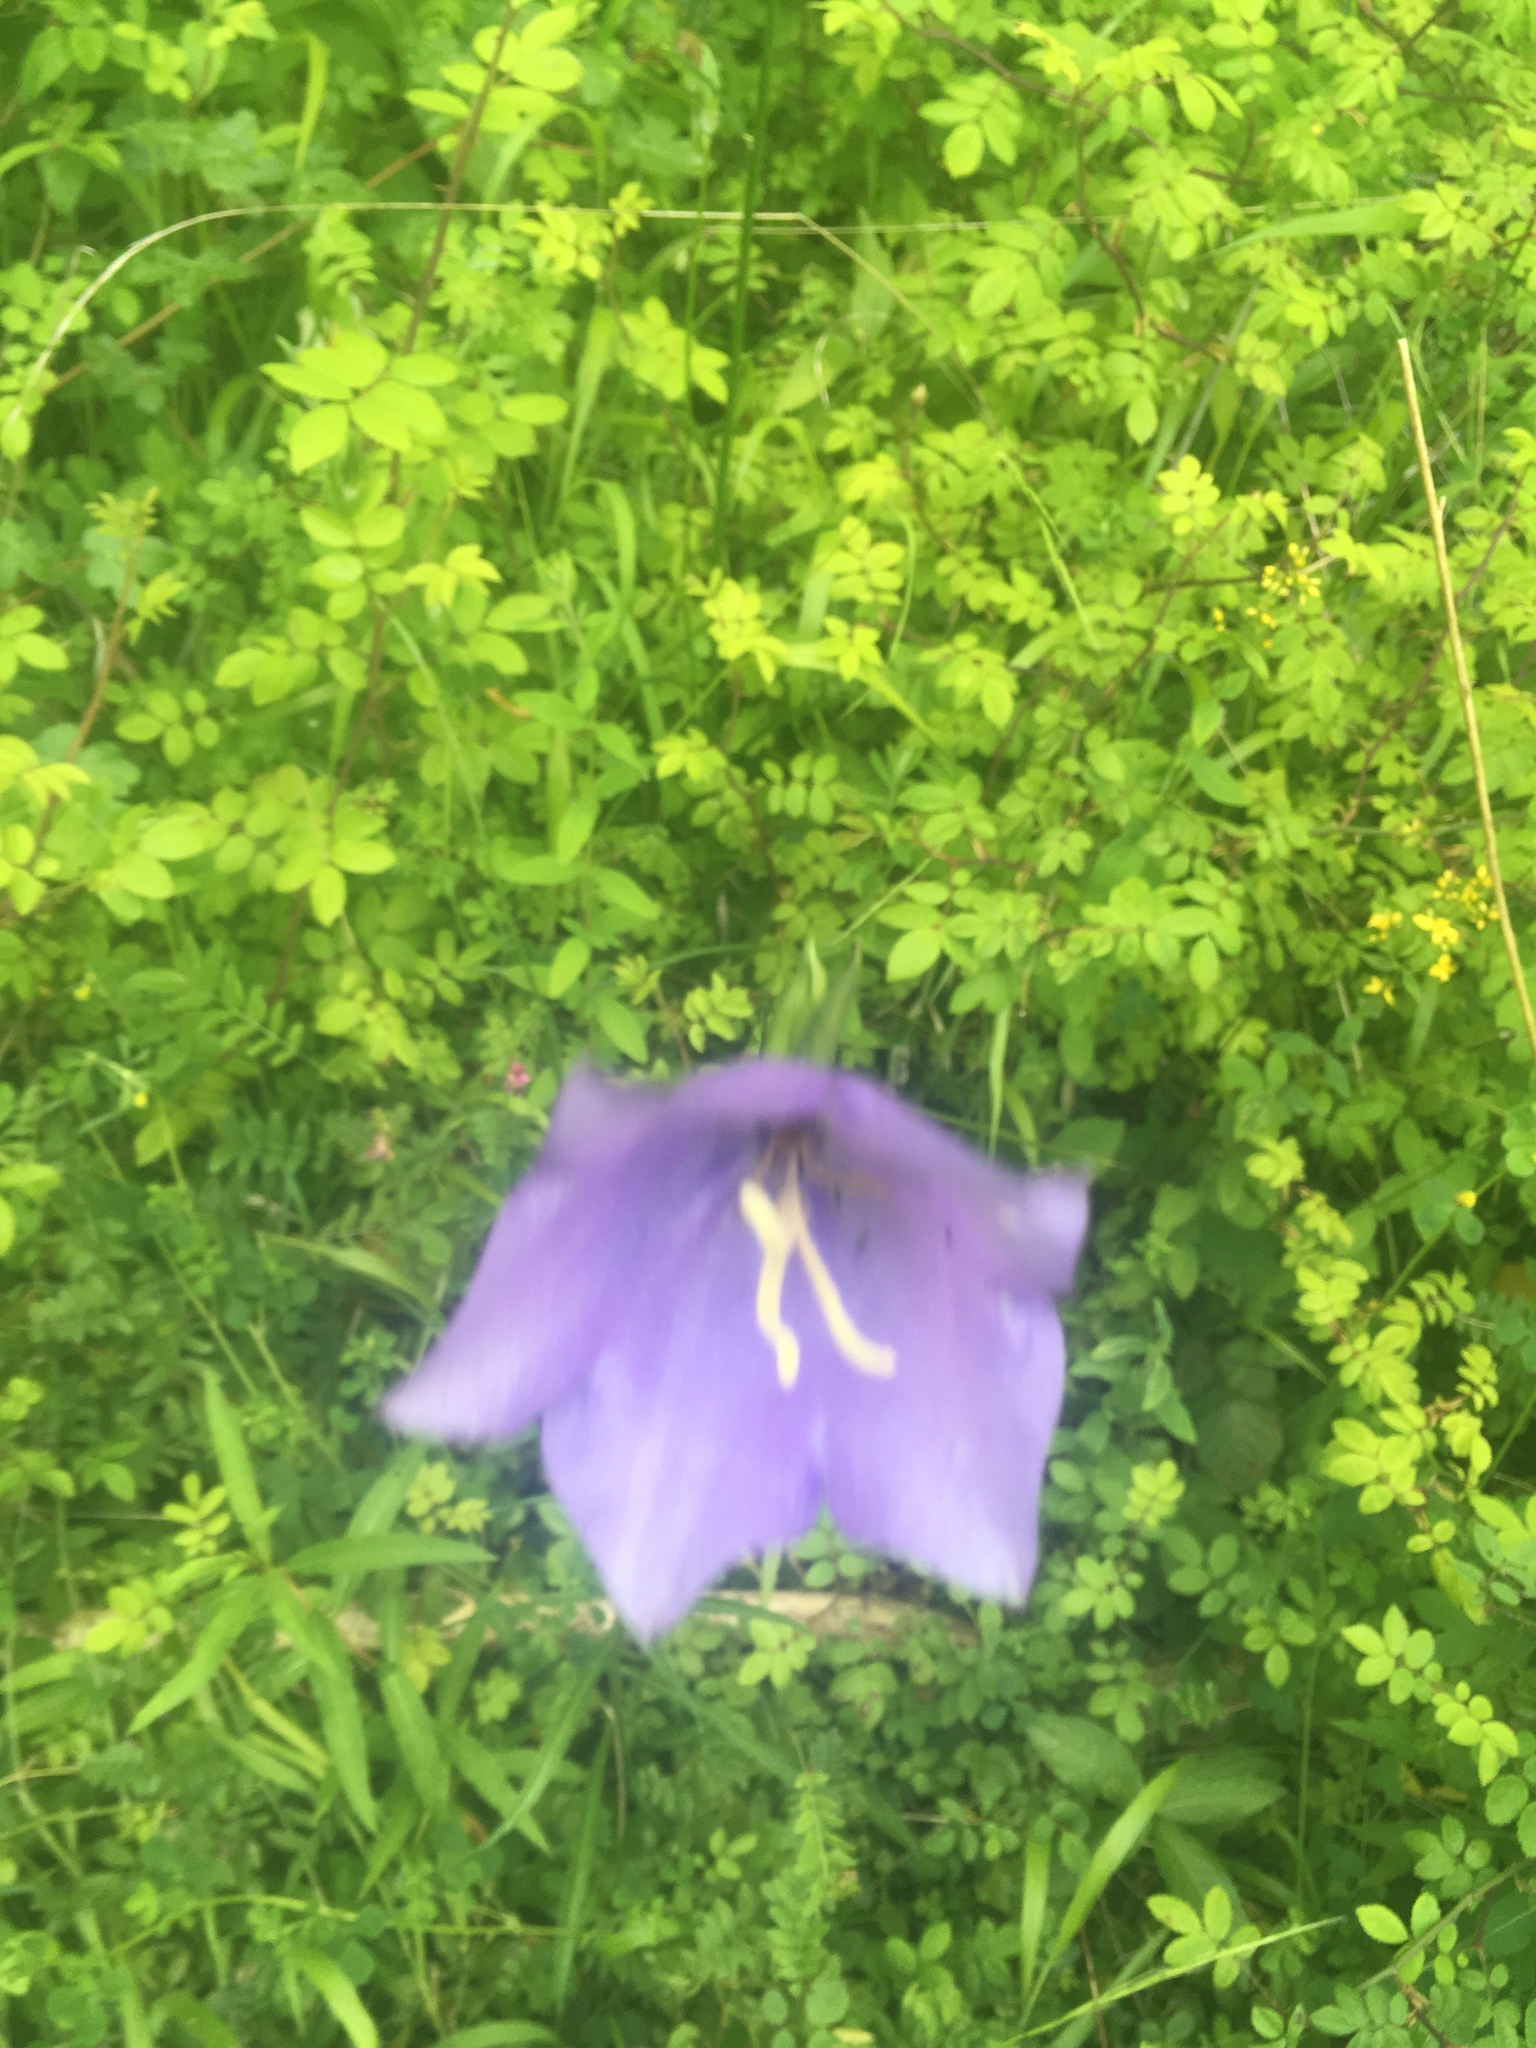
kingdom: Plantae
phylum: Tracheophyta
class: Magnoliopsida
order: Asterales
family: Campanulaceae
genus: Campanula
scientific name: Campanula persicifolia
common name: Peach-leaved bellflower
